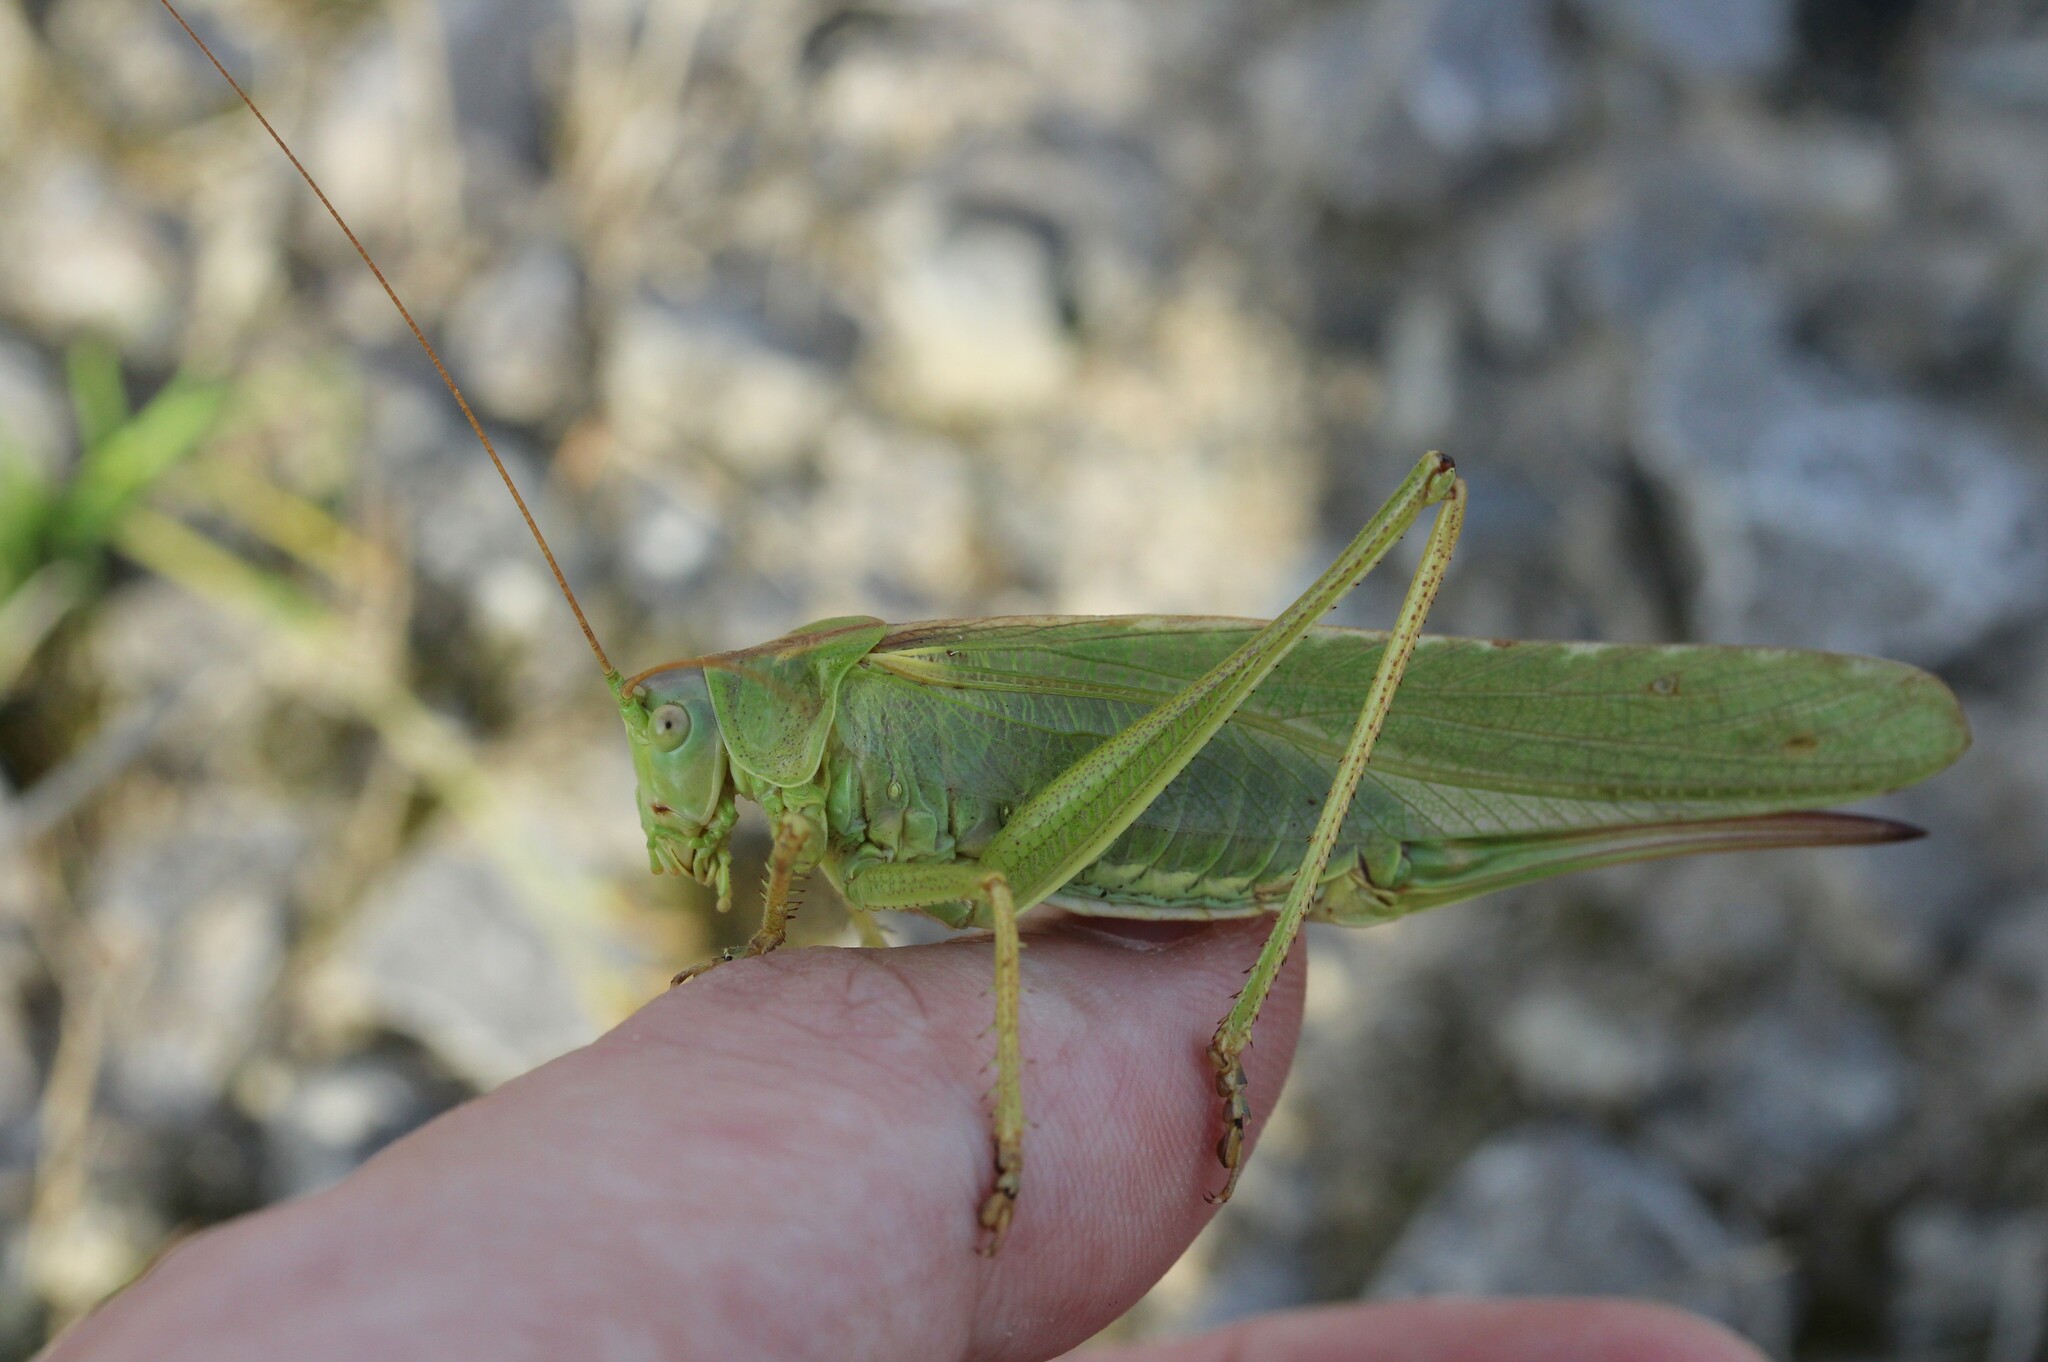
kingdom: Animalia
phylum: Arthropoda
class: Insecta
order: Orthoptera
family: Tettigoniidae
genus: Tettigonia
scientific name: Tettigonia viridissima
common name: Great green bush-cricket
